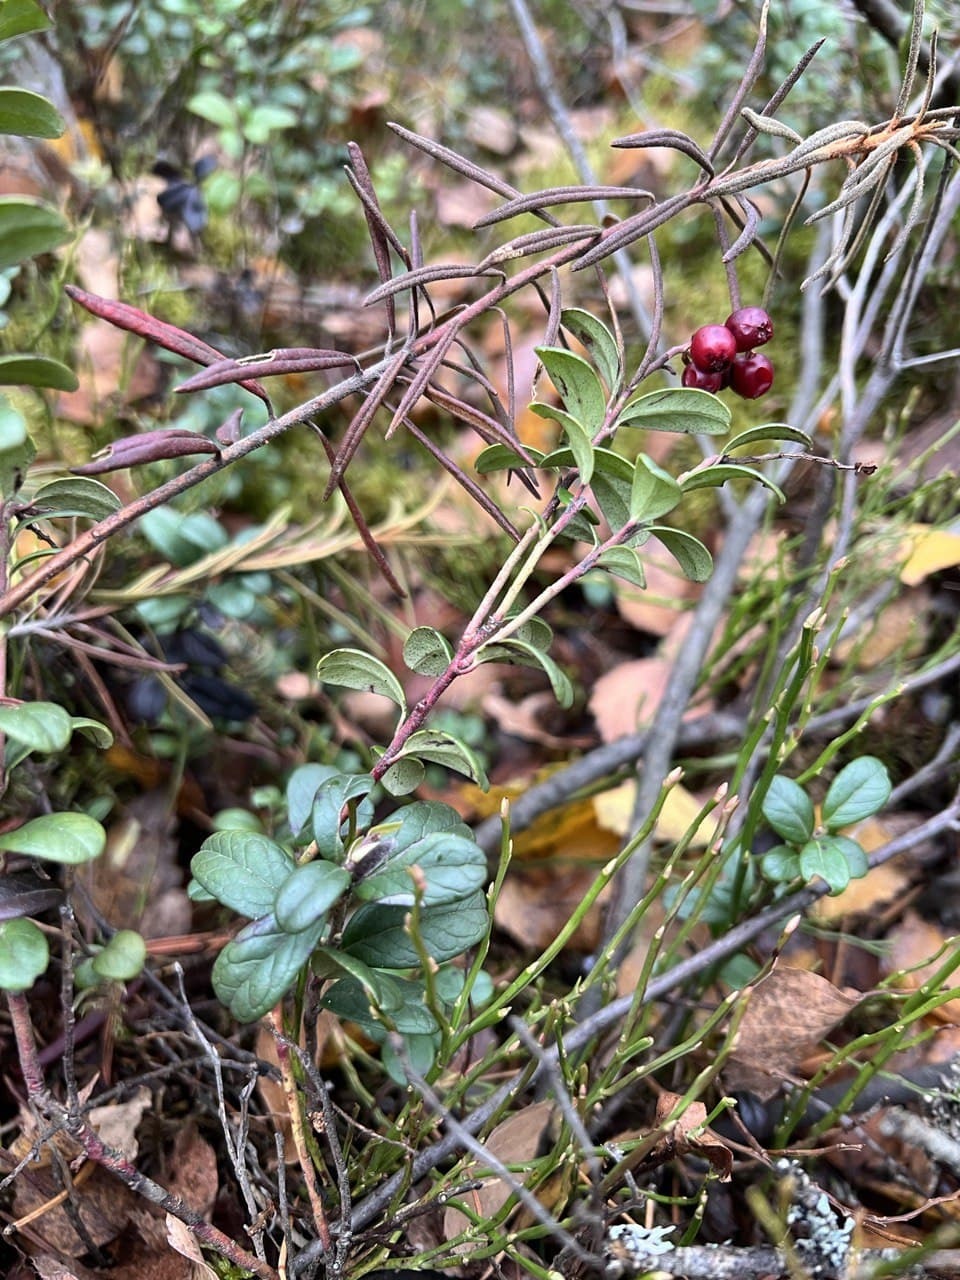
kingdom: Plantae
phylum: Tracheophyta
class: Magnoliopsida
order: Ericales
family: Ericaceae
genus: Vaccinium
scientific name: Vaccinium vitis-idaea
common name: Cowberry
